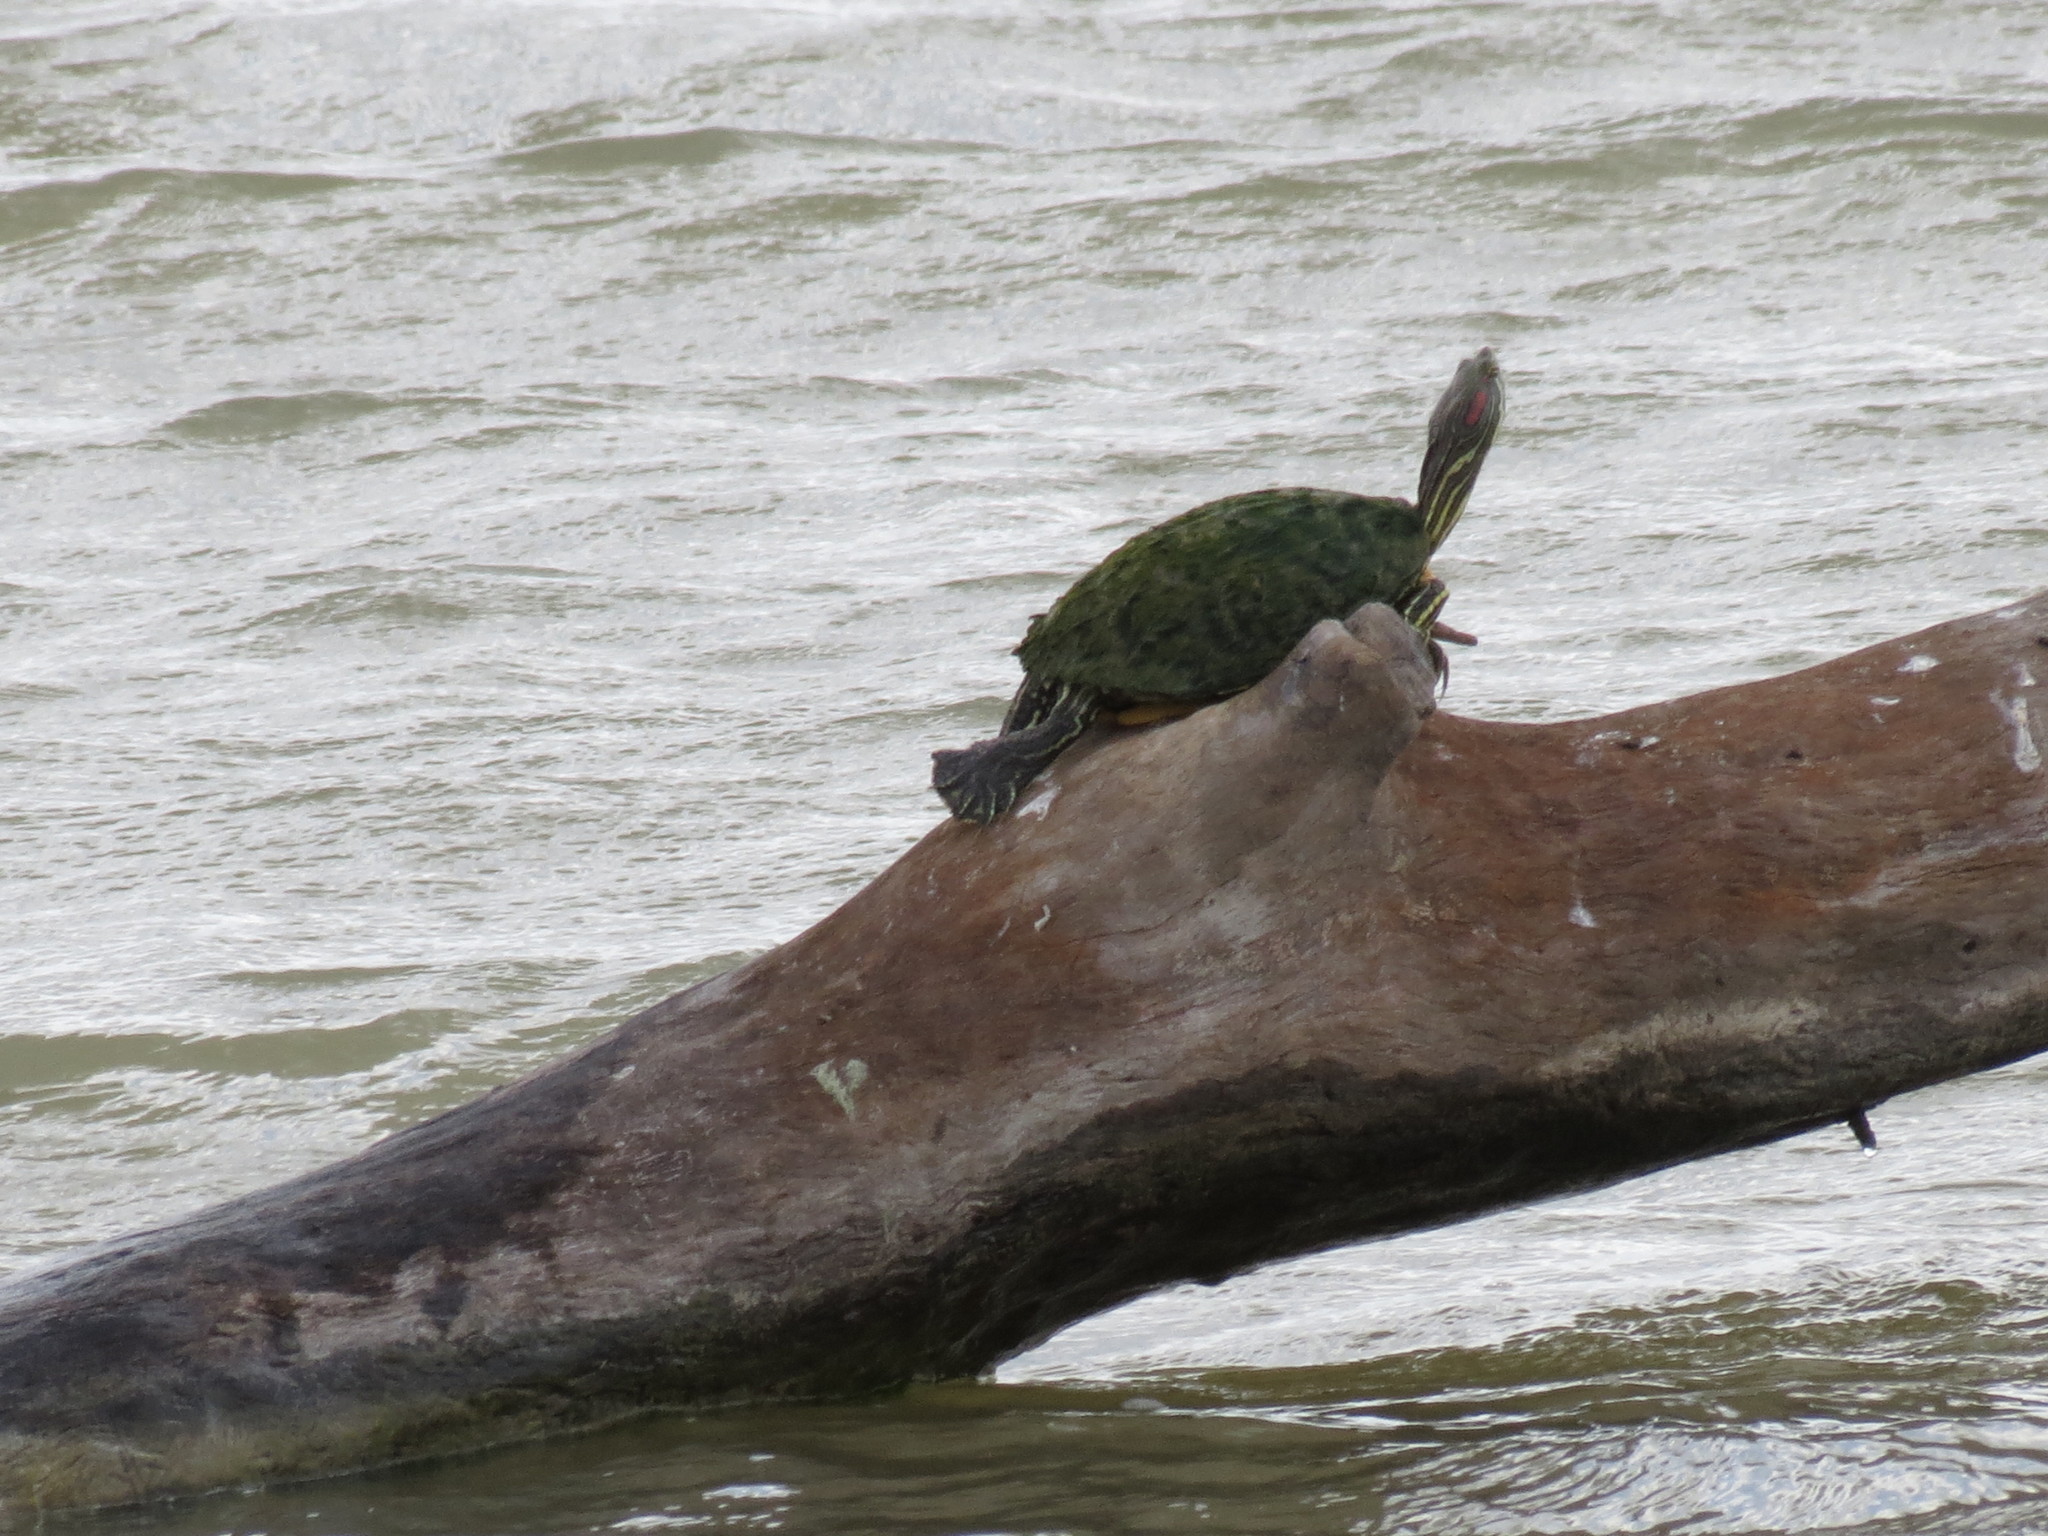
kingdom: Animalia
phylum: Chordata
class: Testudines
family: Emydidae
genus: Trachemys
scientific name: Trachemys scripta
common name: Slider
